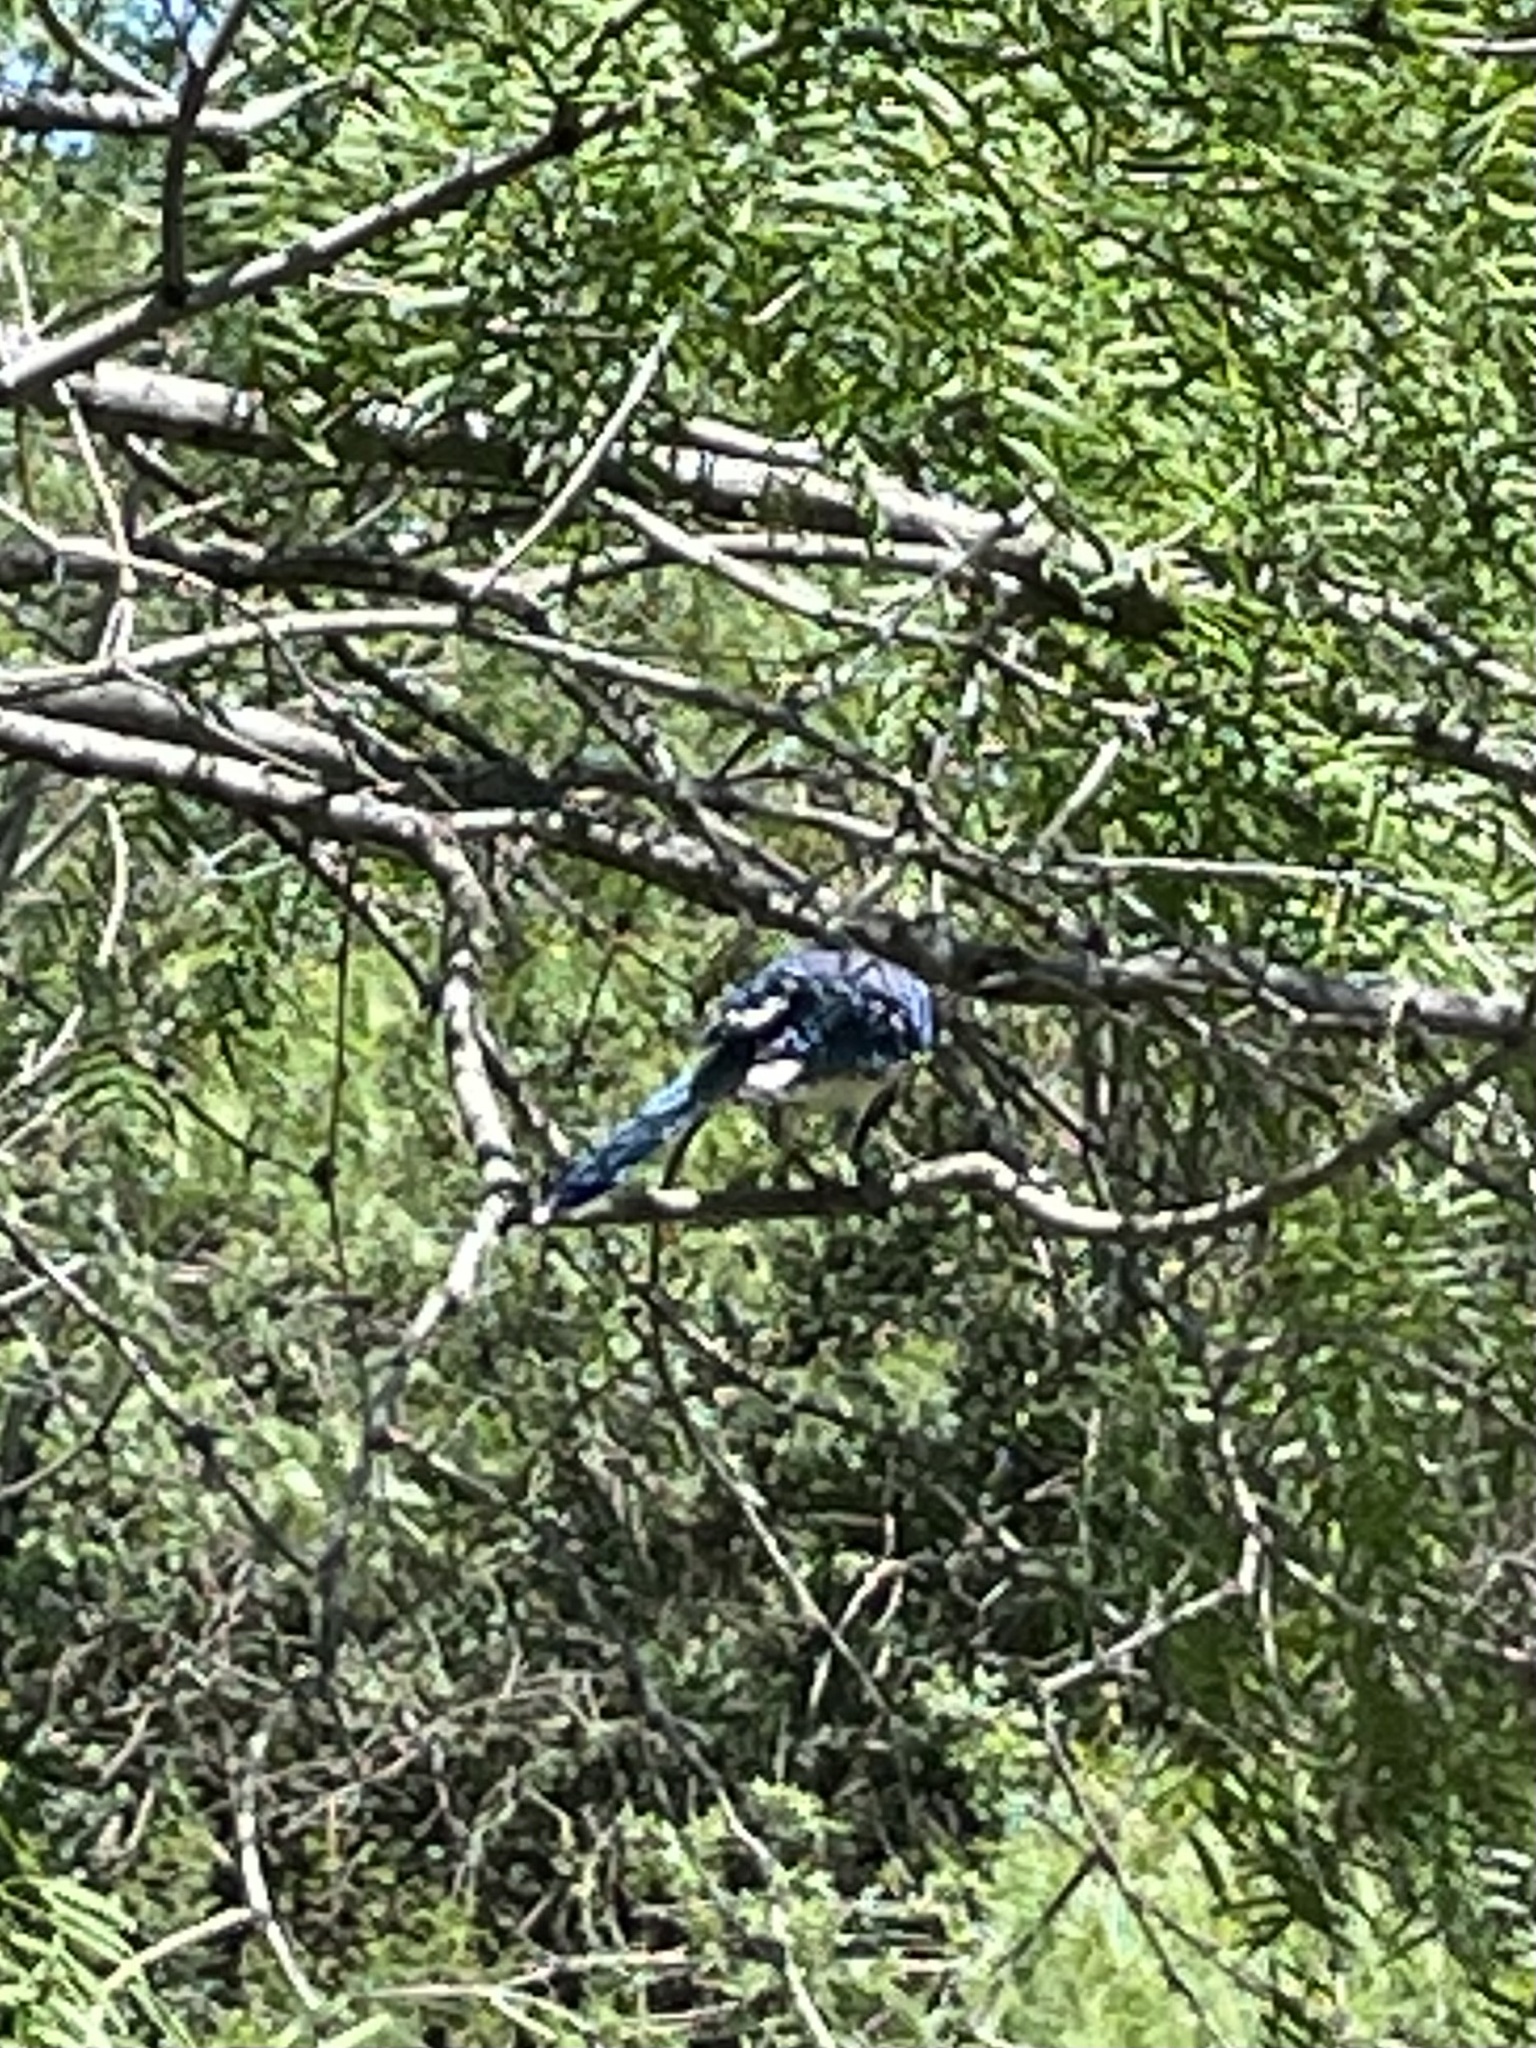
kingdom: Animalia
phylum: Chordata
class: Aves
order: Passeriformes
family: Corvidae
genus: Cyanocitta
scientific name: Cyanocitta cristata
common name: Blue jay
